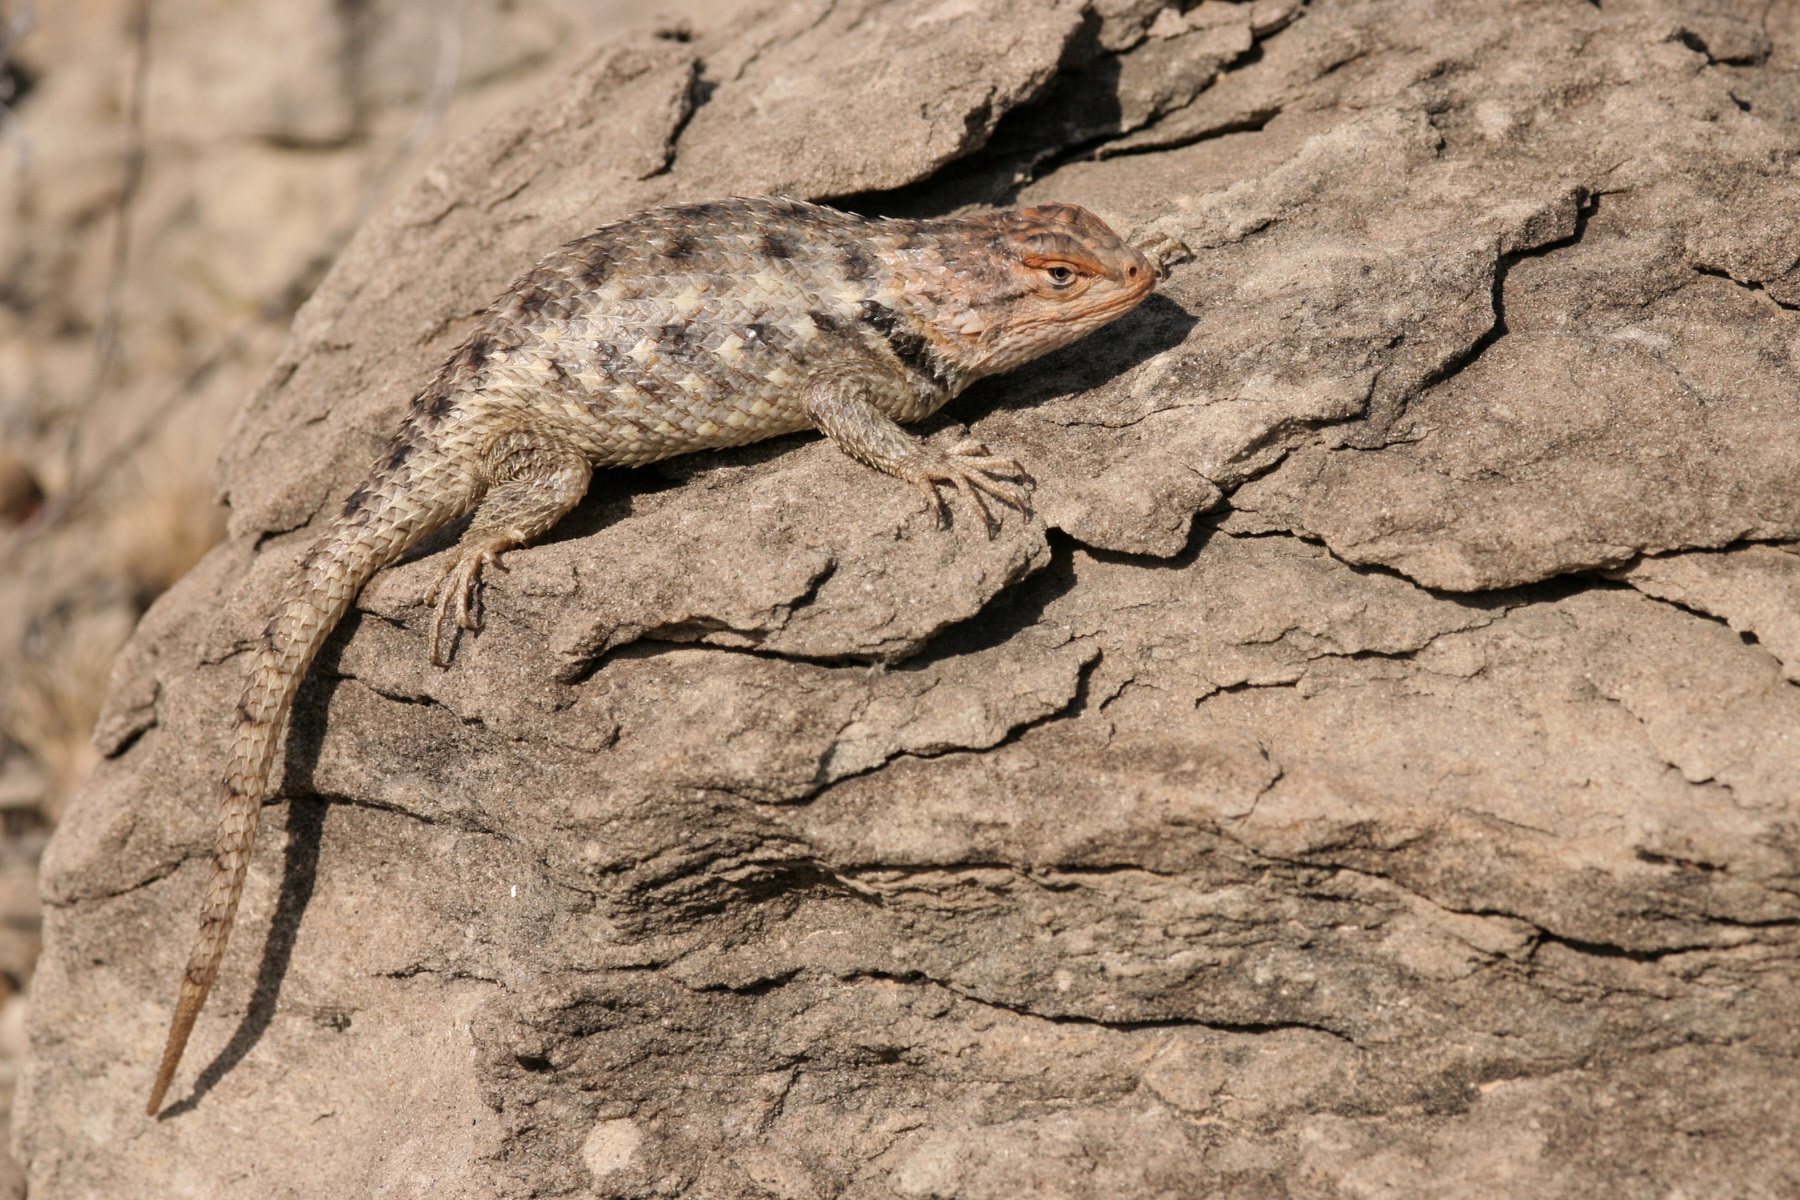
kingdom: Animalia
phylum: Chordata
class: Squamata
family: Phrynosomatidae
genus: Sceloporus
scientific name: Sceloporus bimaculosus
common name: Twin-spotted spiny lizard
